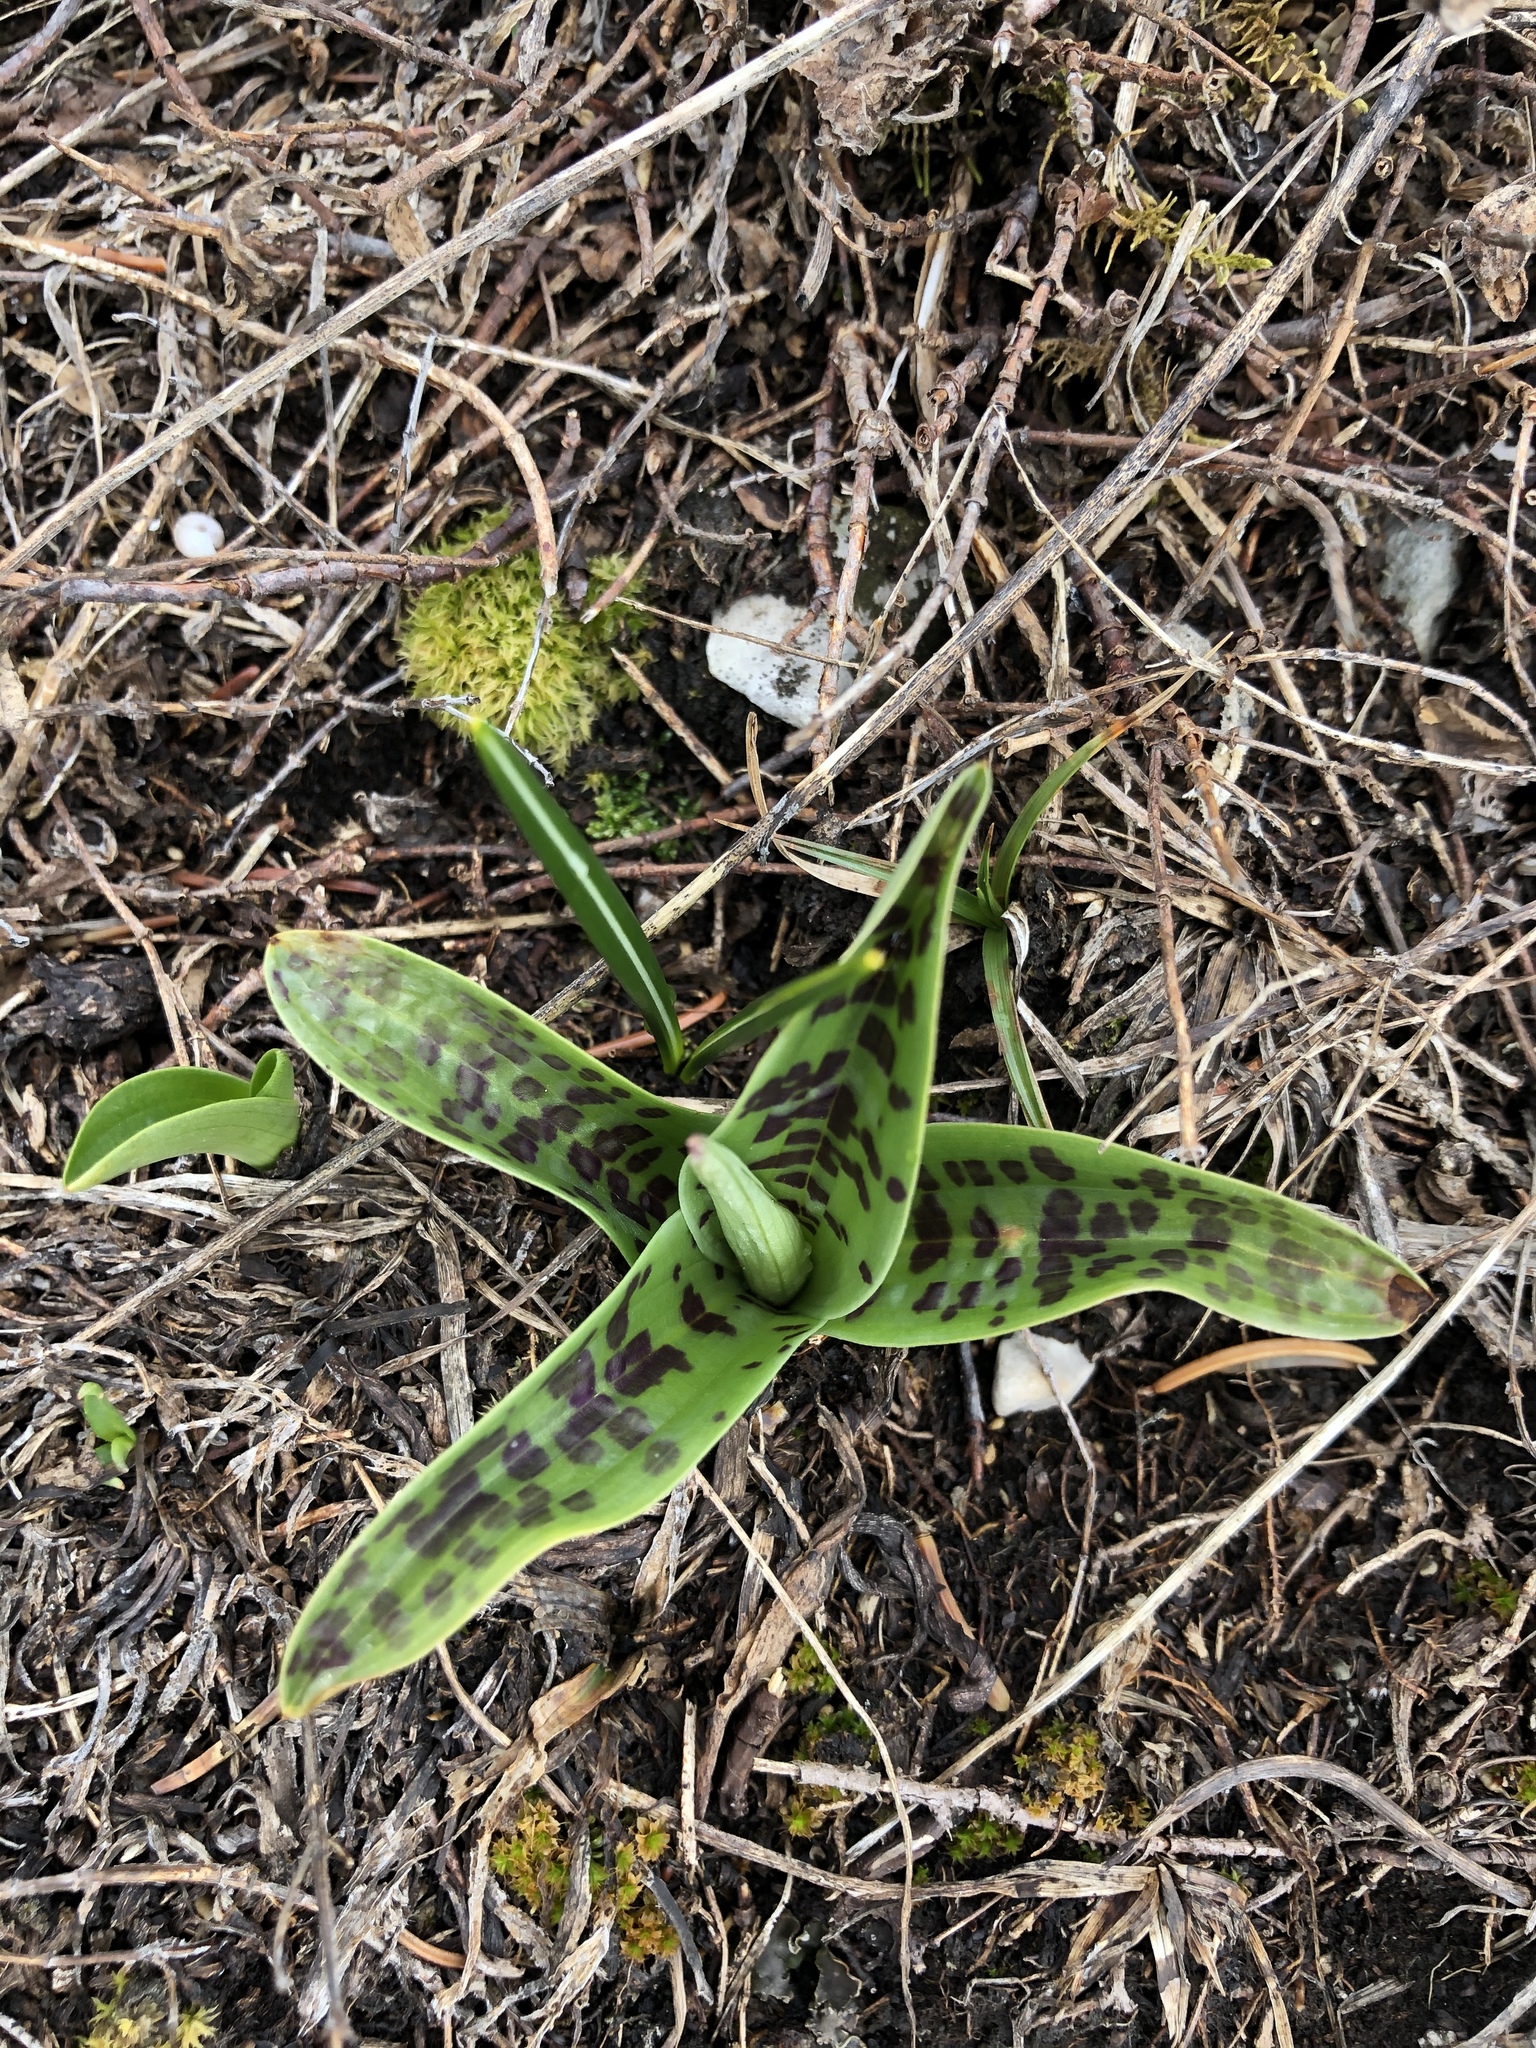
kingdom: Plantae
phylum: Tracheophyta
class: Liliopsida
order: Asparagales
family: Orchidaceae
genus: Dactylorhiza
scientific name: Dactylorhiza maculata
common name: Heath spotted-orchid
